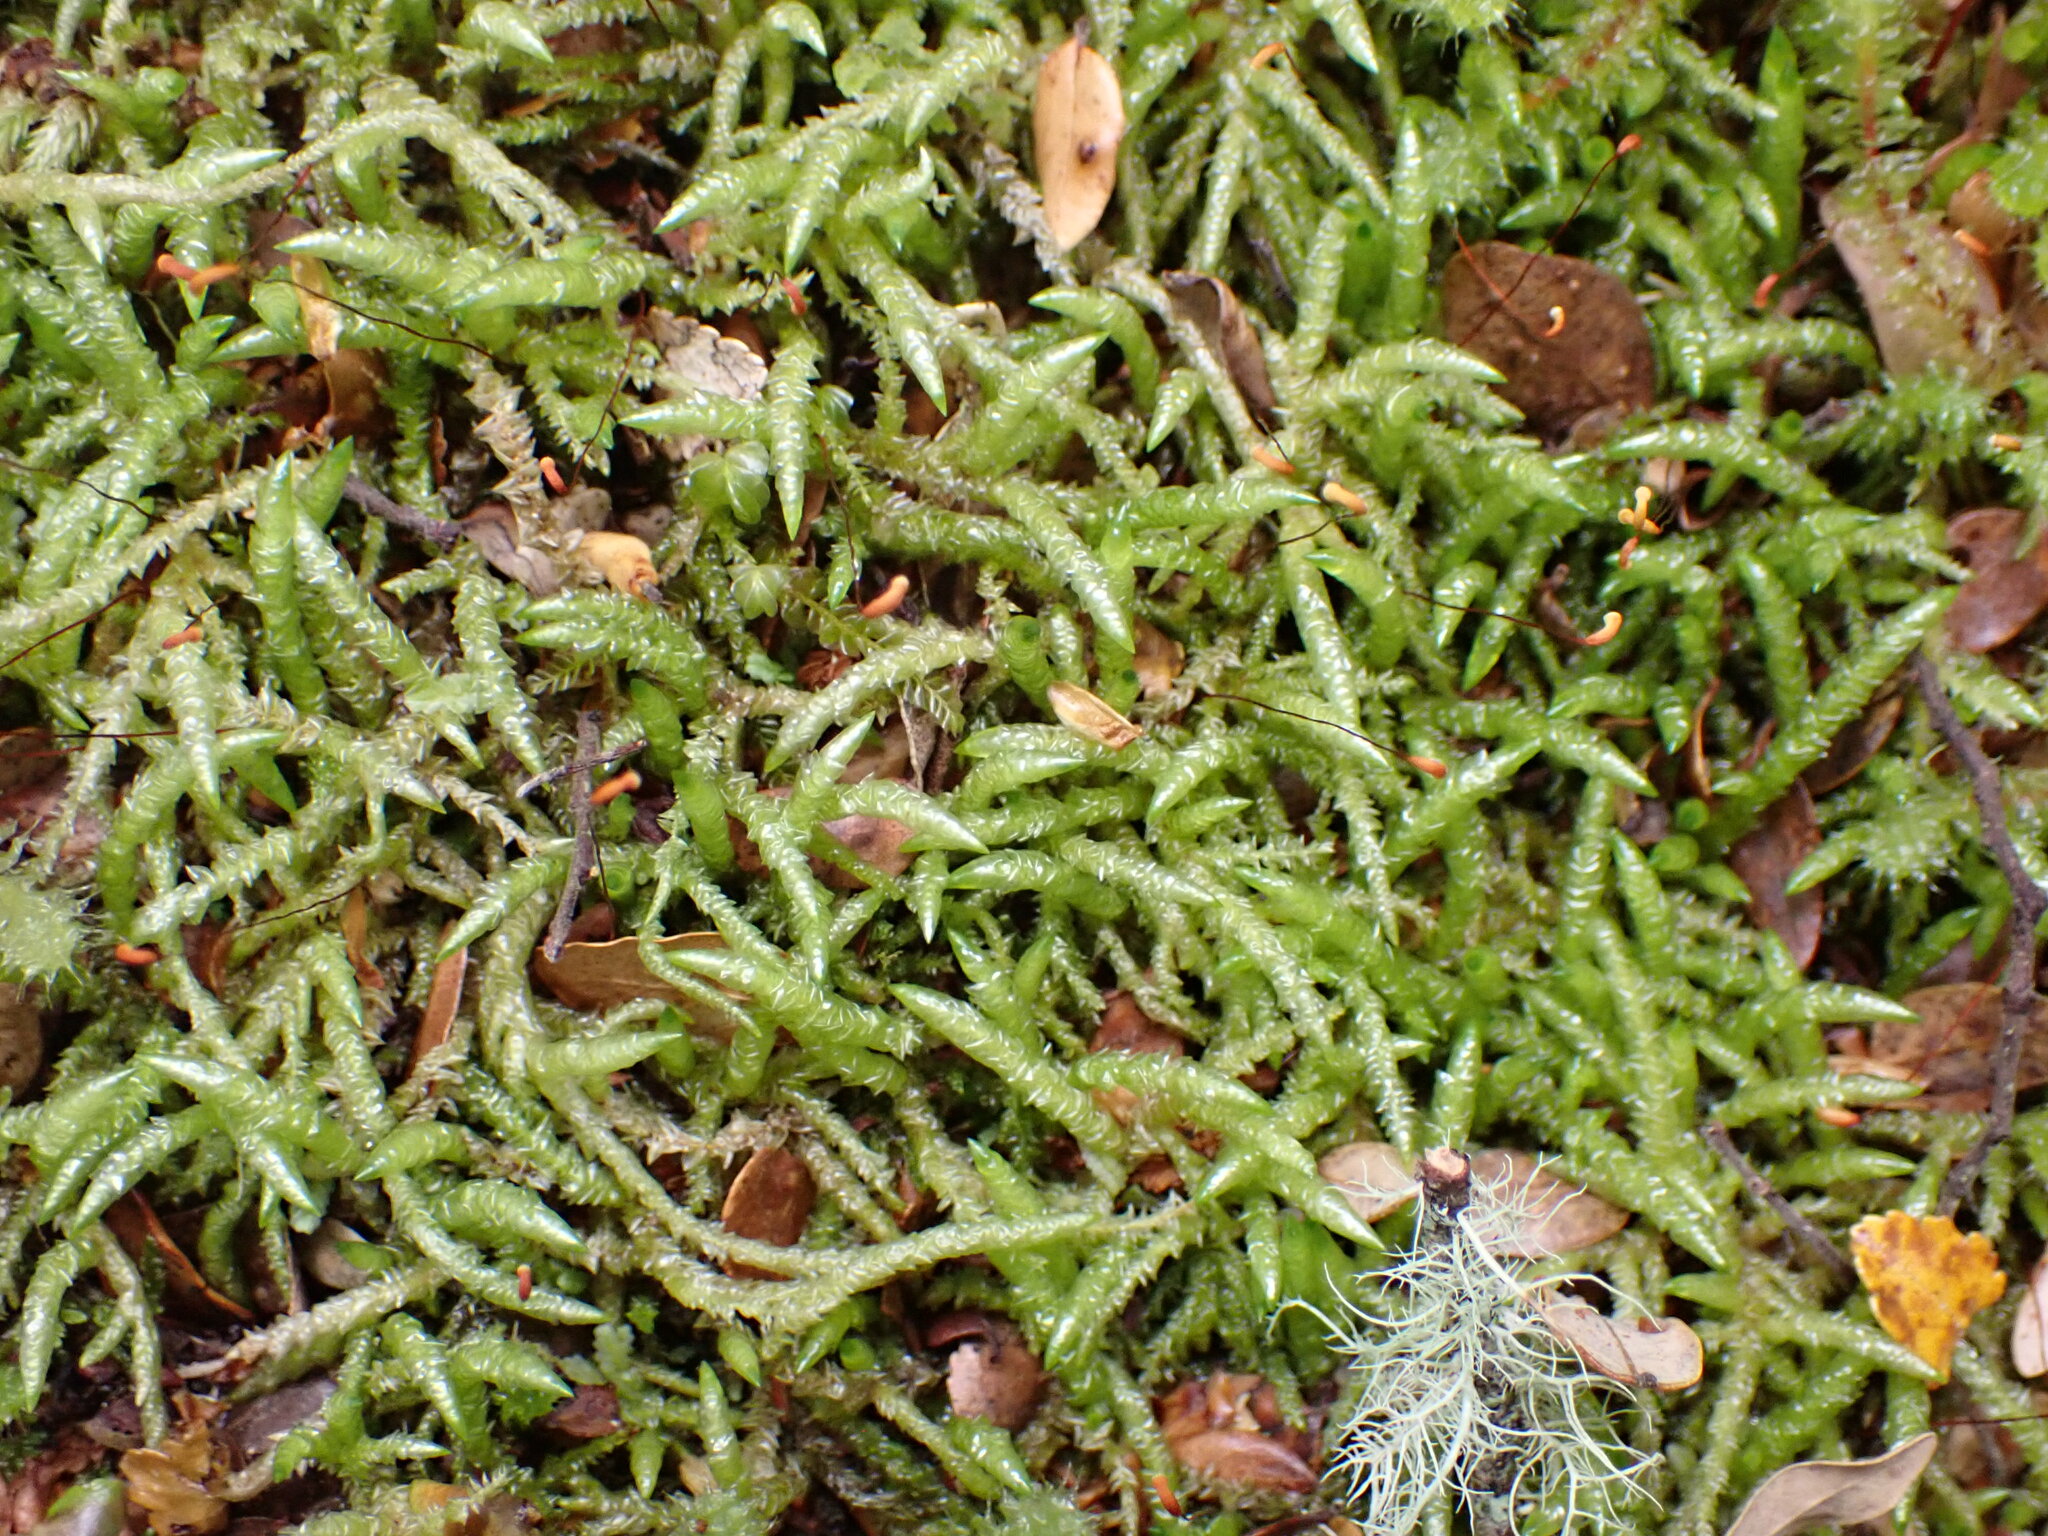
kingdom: Plantae
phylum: Bryophyta
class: Bryopsida
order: Hypnales
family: Acrocladiaceae
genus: Acrocladium
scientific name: Acrocladium chlamydophyllum
